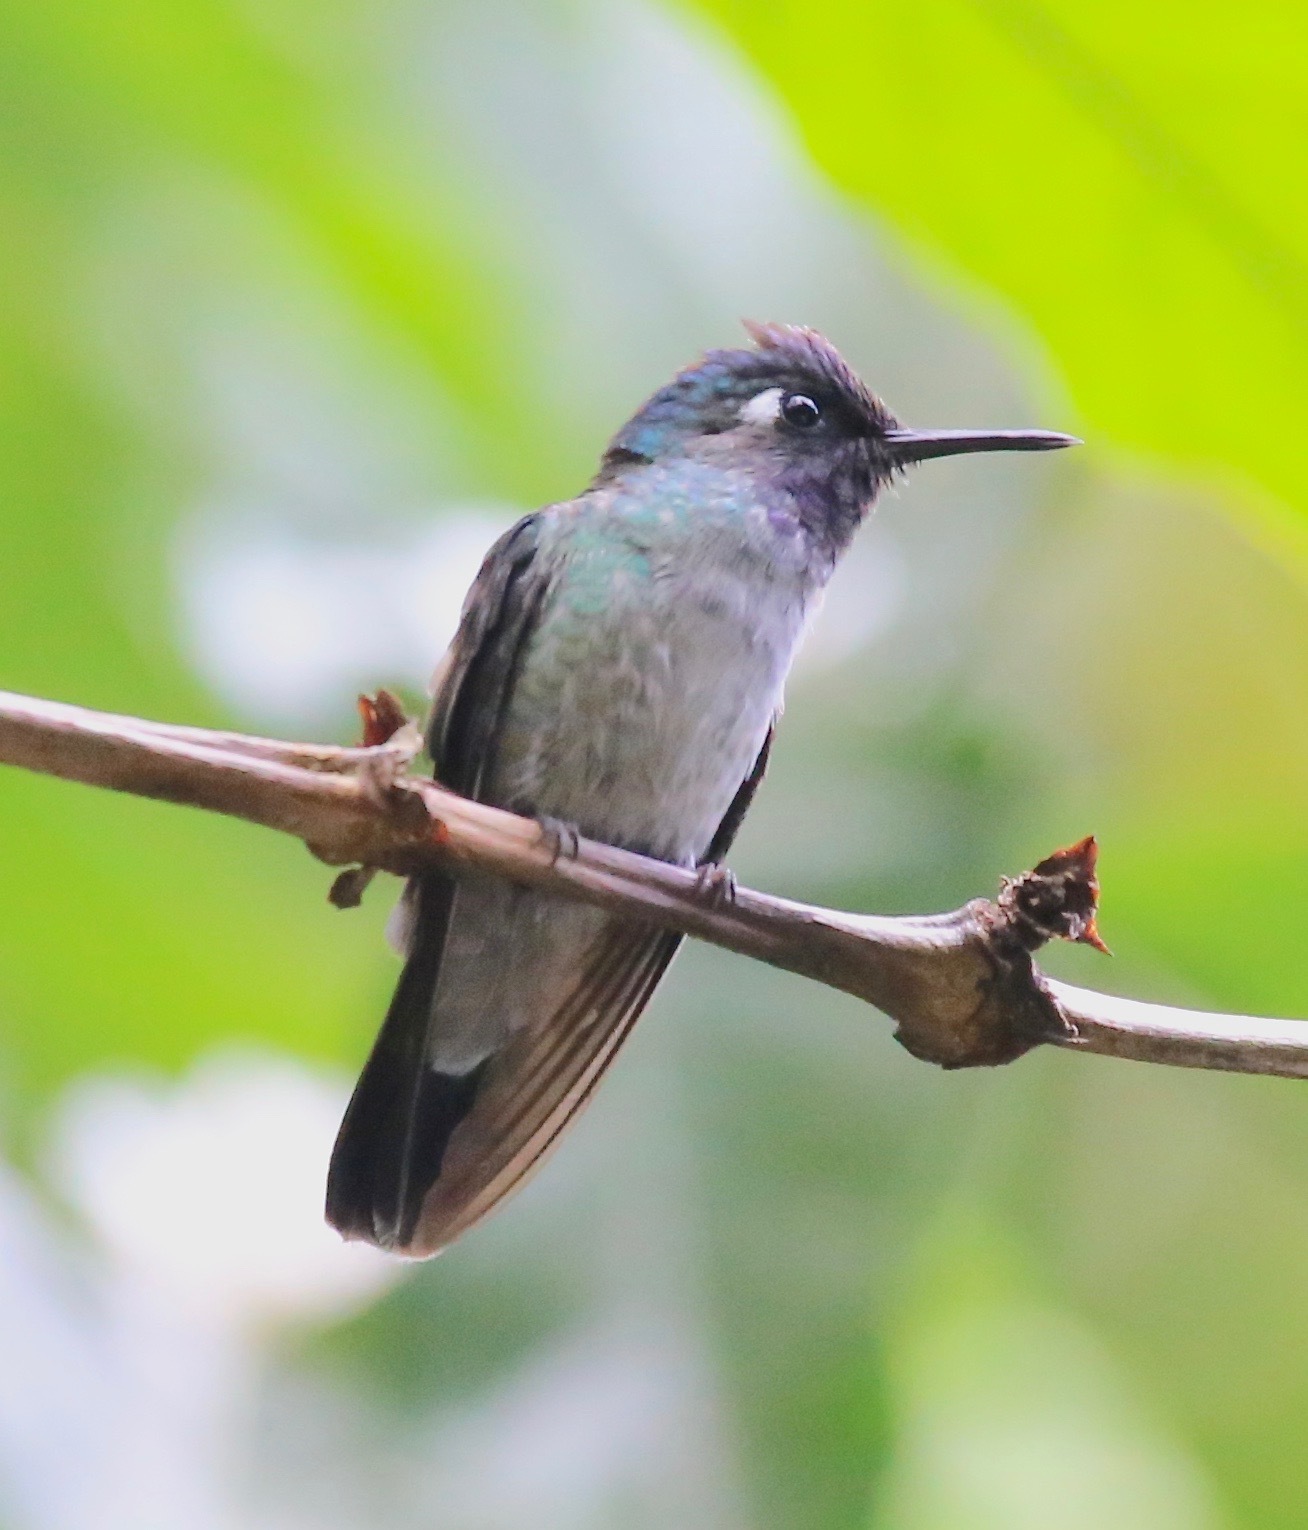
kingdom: Animalia
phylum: Chordata
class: Aves
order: Apodiformes
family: Trochilidae
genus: Klais
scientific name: Klais guimeti
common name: Violet-headed hummingbird
